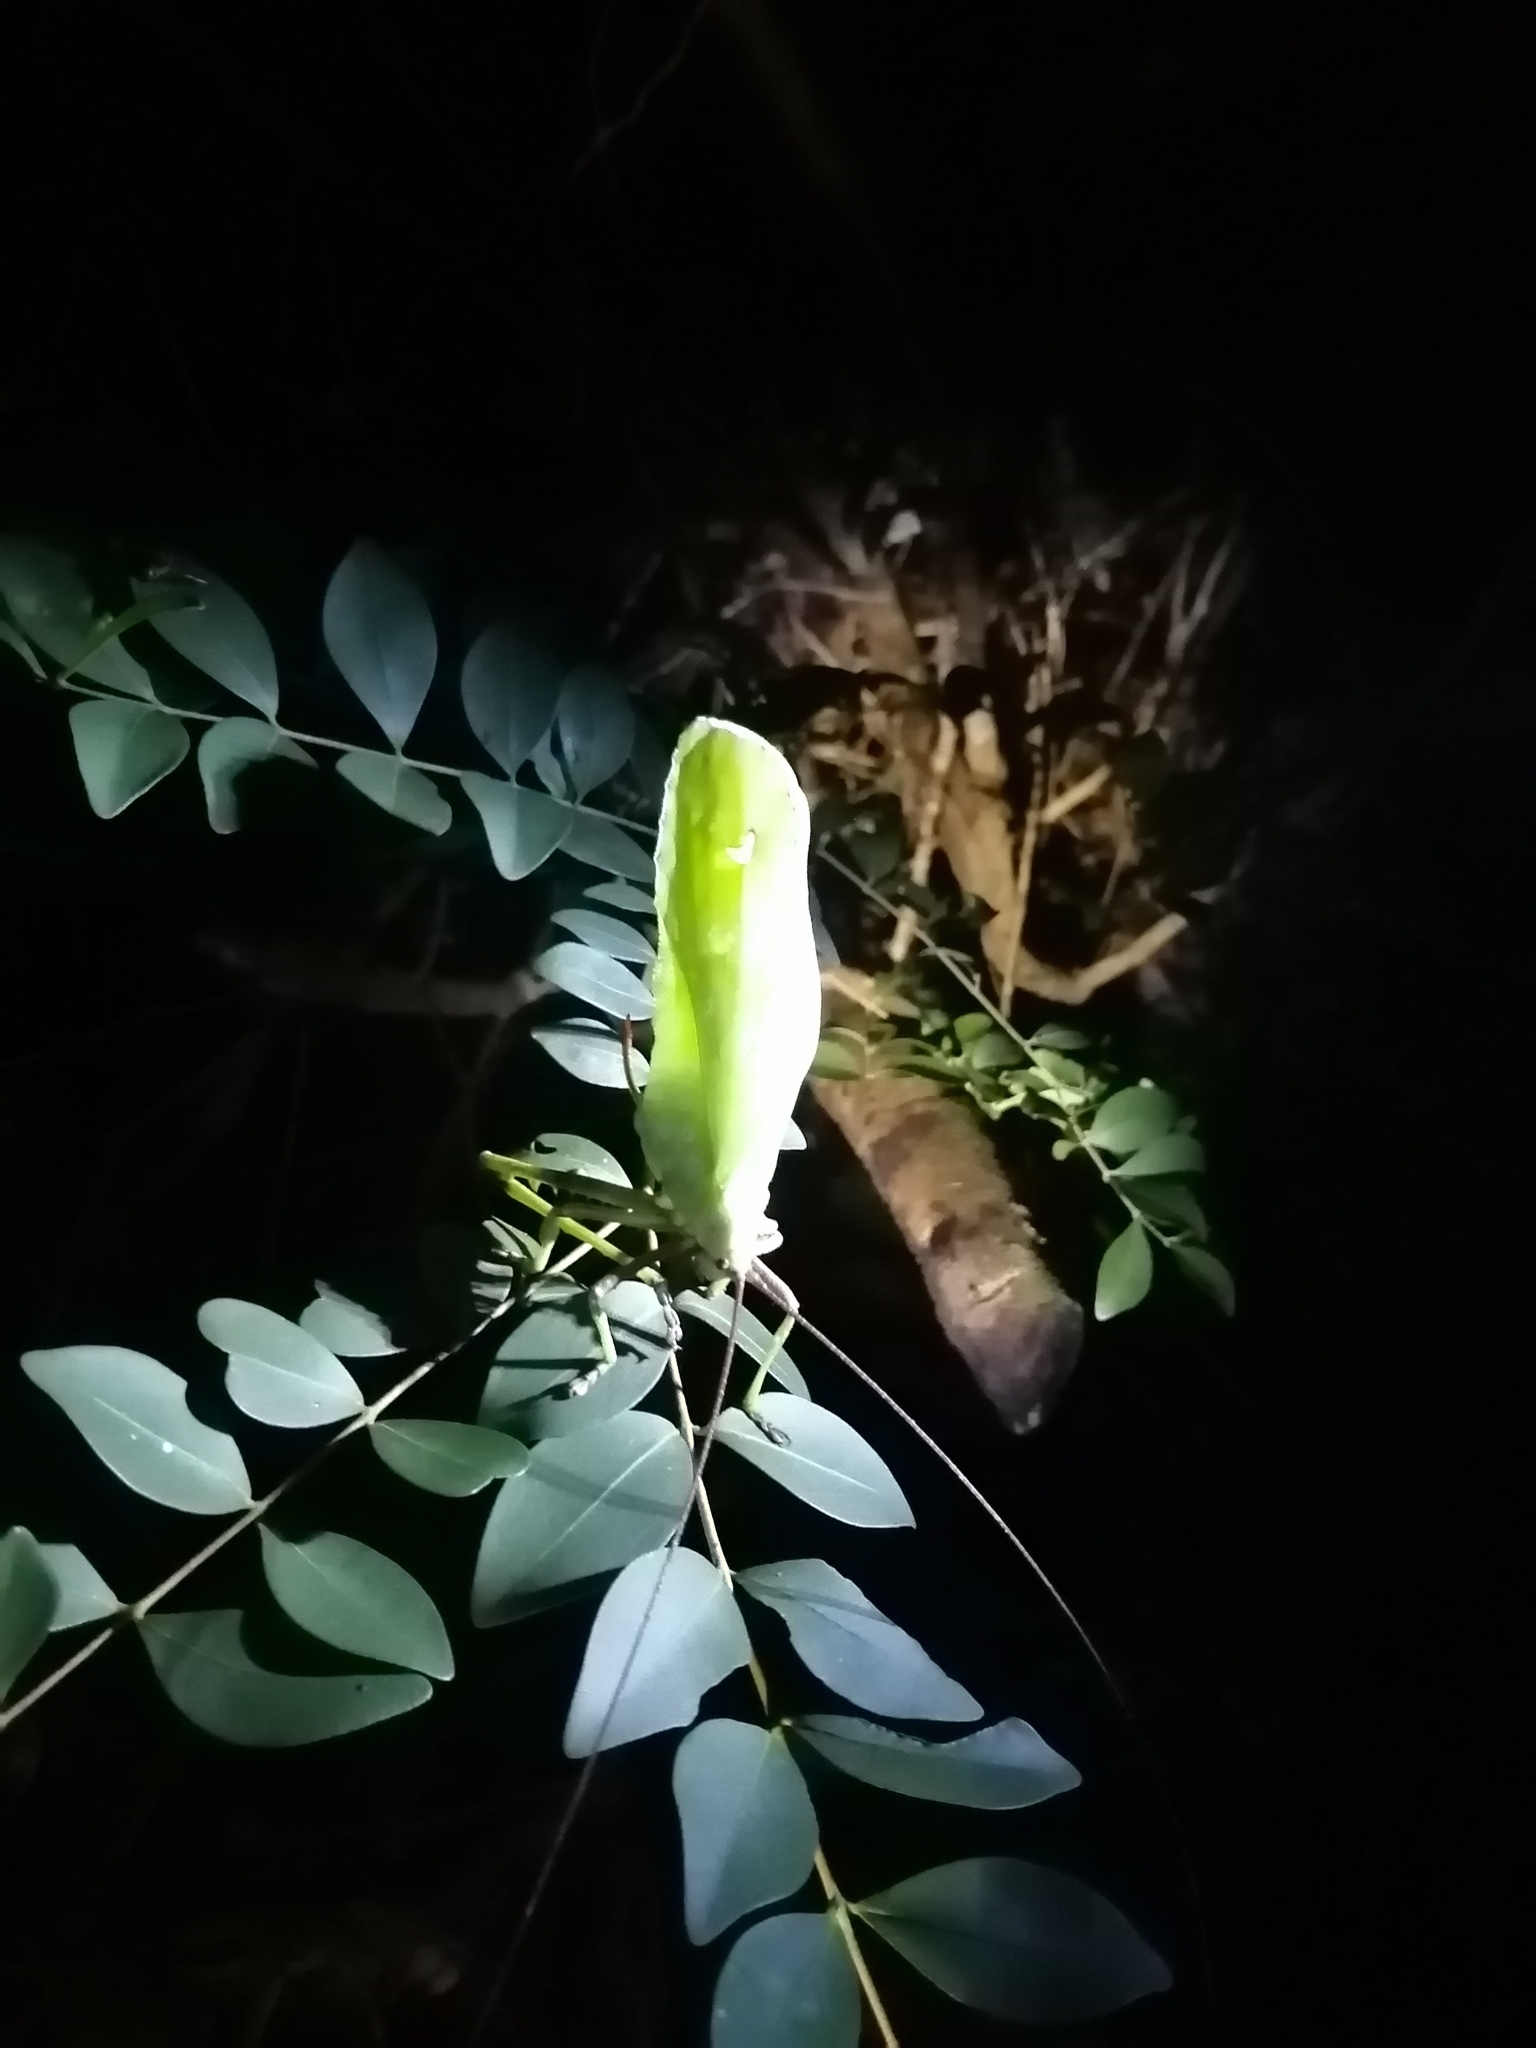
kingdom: Animalia
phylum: Arthropoda
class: Insecta
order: Orthoptera
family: Tettigoniidae
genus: Celidophylla
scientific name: Celidophylla albimacula
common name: Giant sylvan leaf katydid
